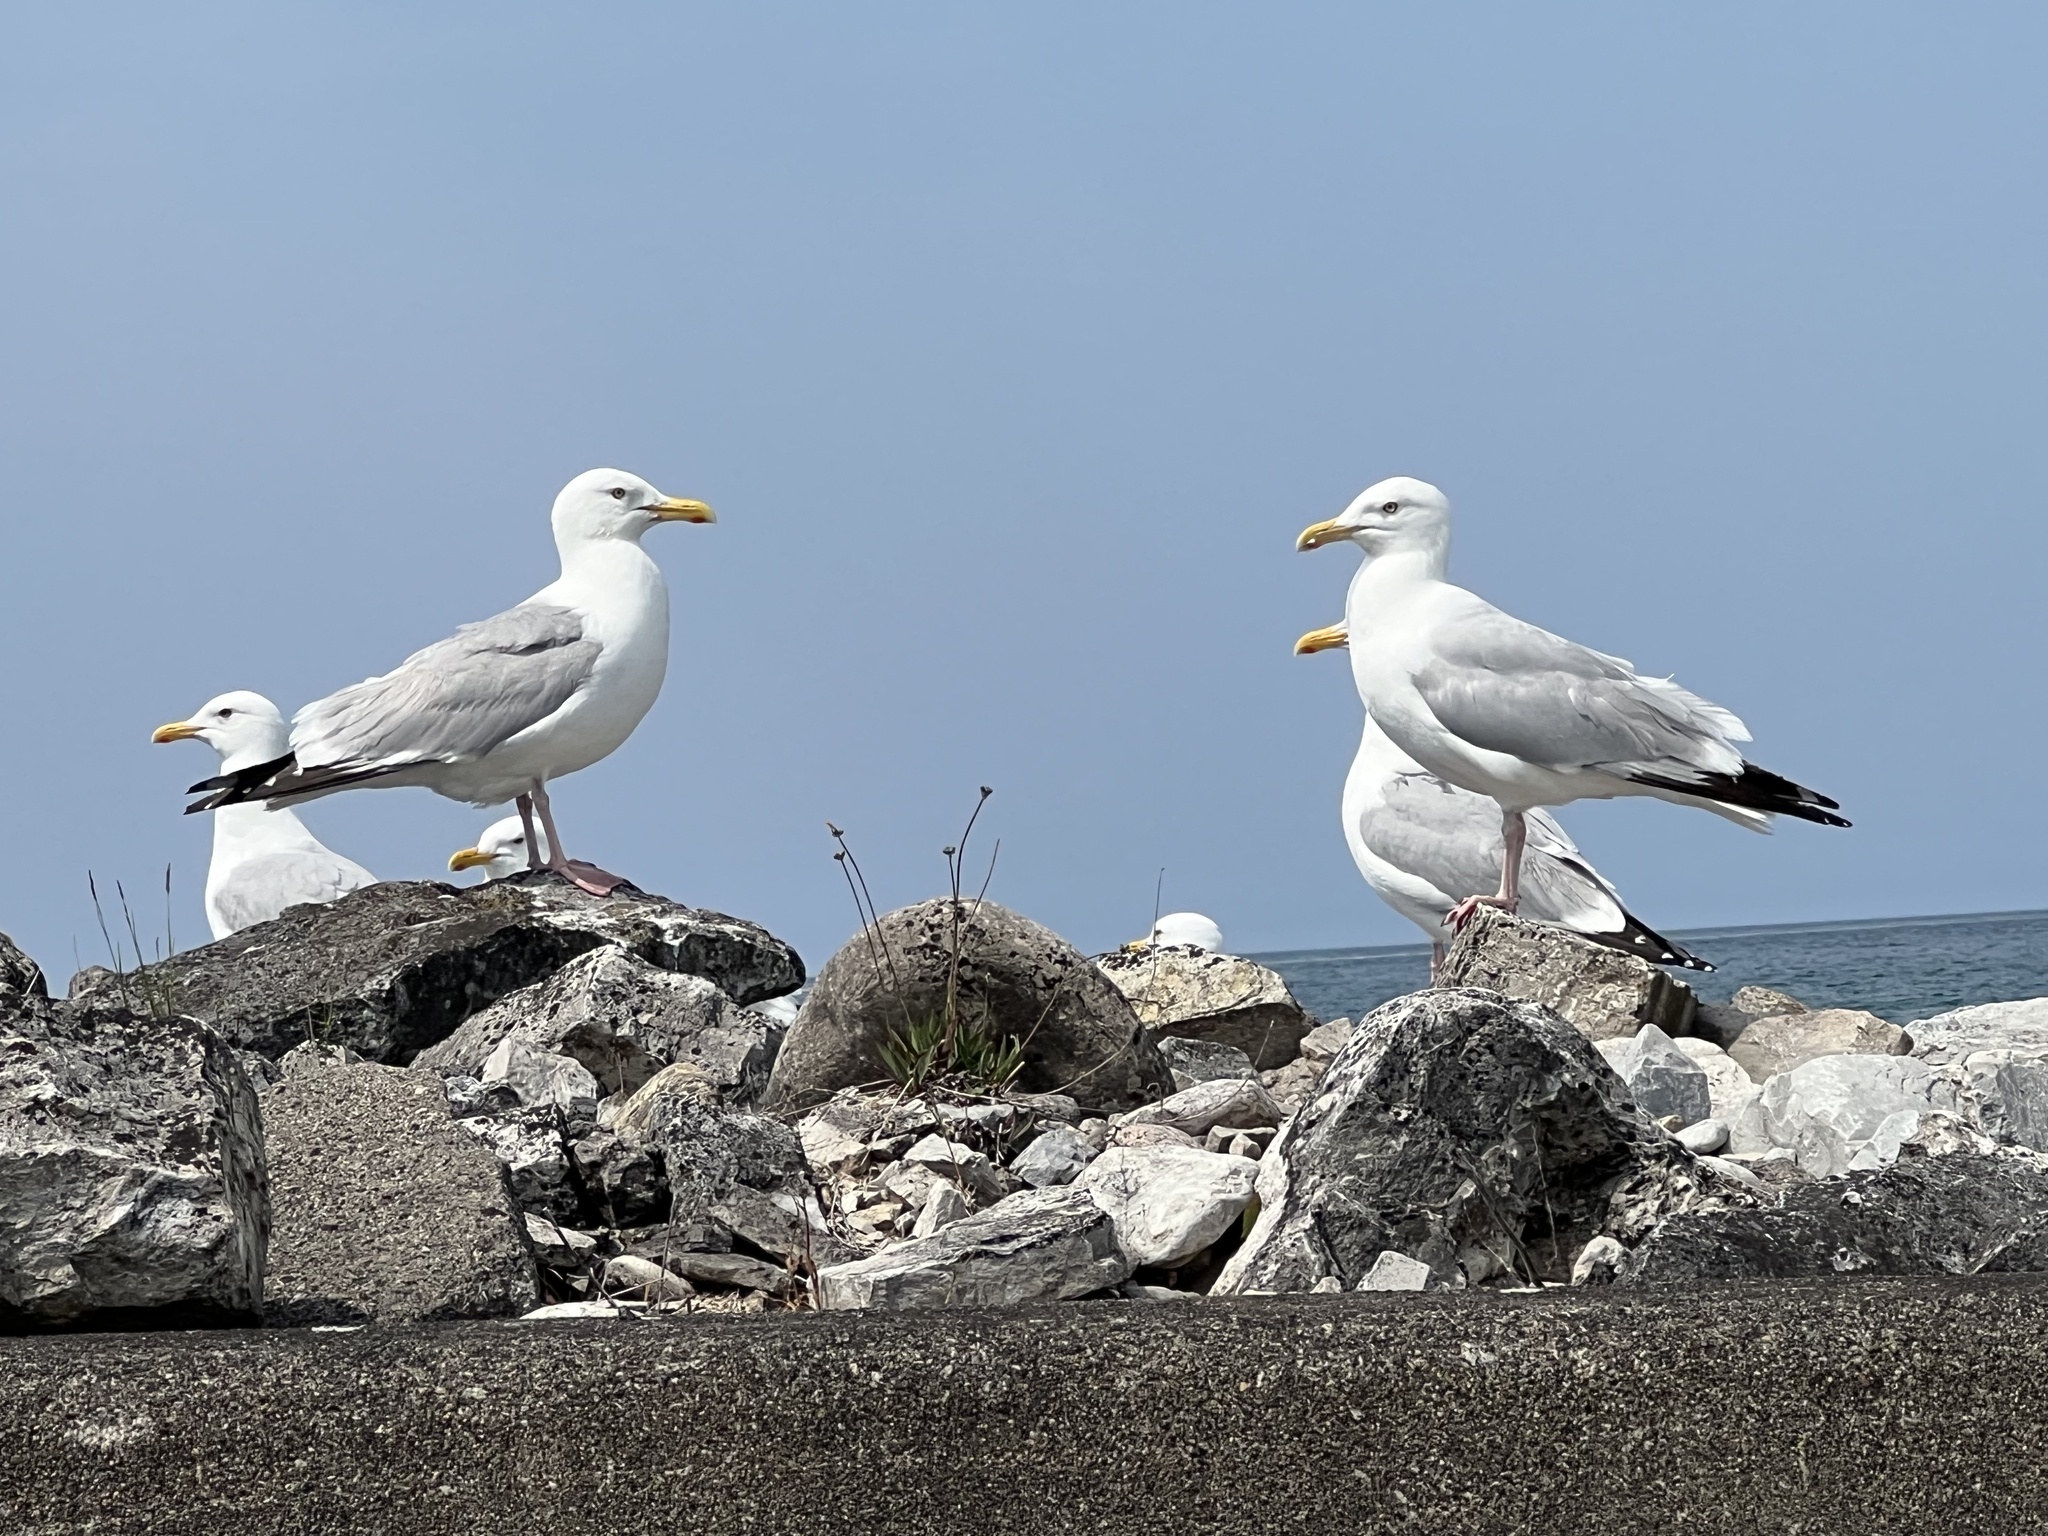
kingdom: Animalia
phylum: Chordata
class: Aves
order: Charadriiformes
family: Laridae
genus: Larus
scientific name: Larus argentatus
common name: Herring gull
